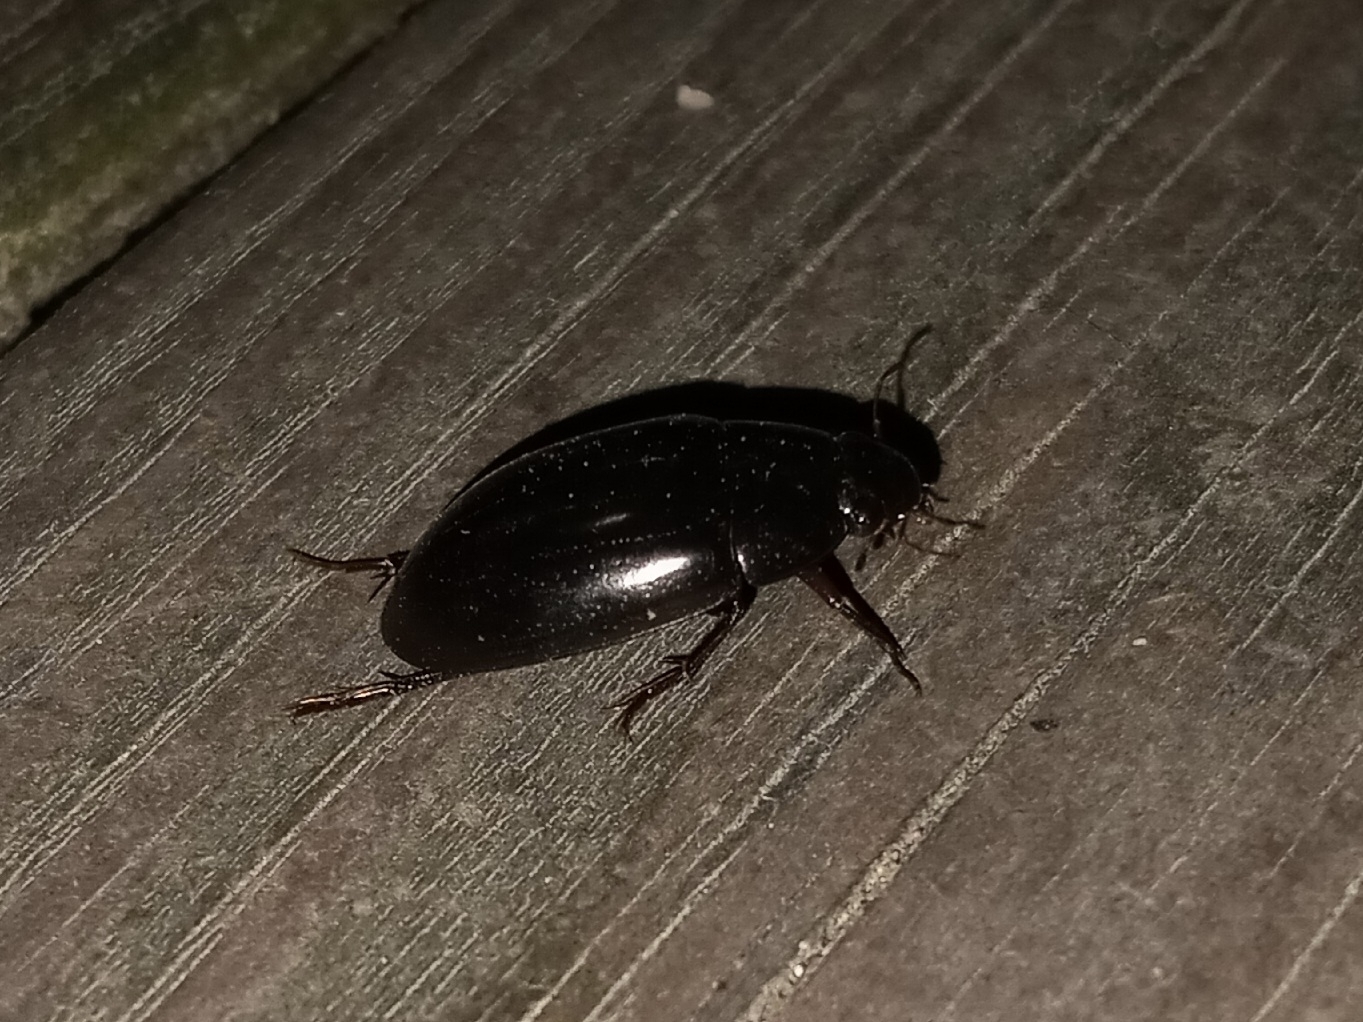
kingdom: Animalia
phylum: Arthropoda
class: Insecta
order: Coleoptera
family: Hydrophilidae
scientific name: Hydrophilidae
